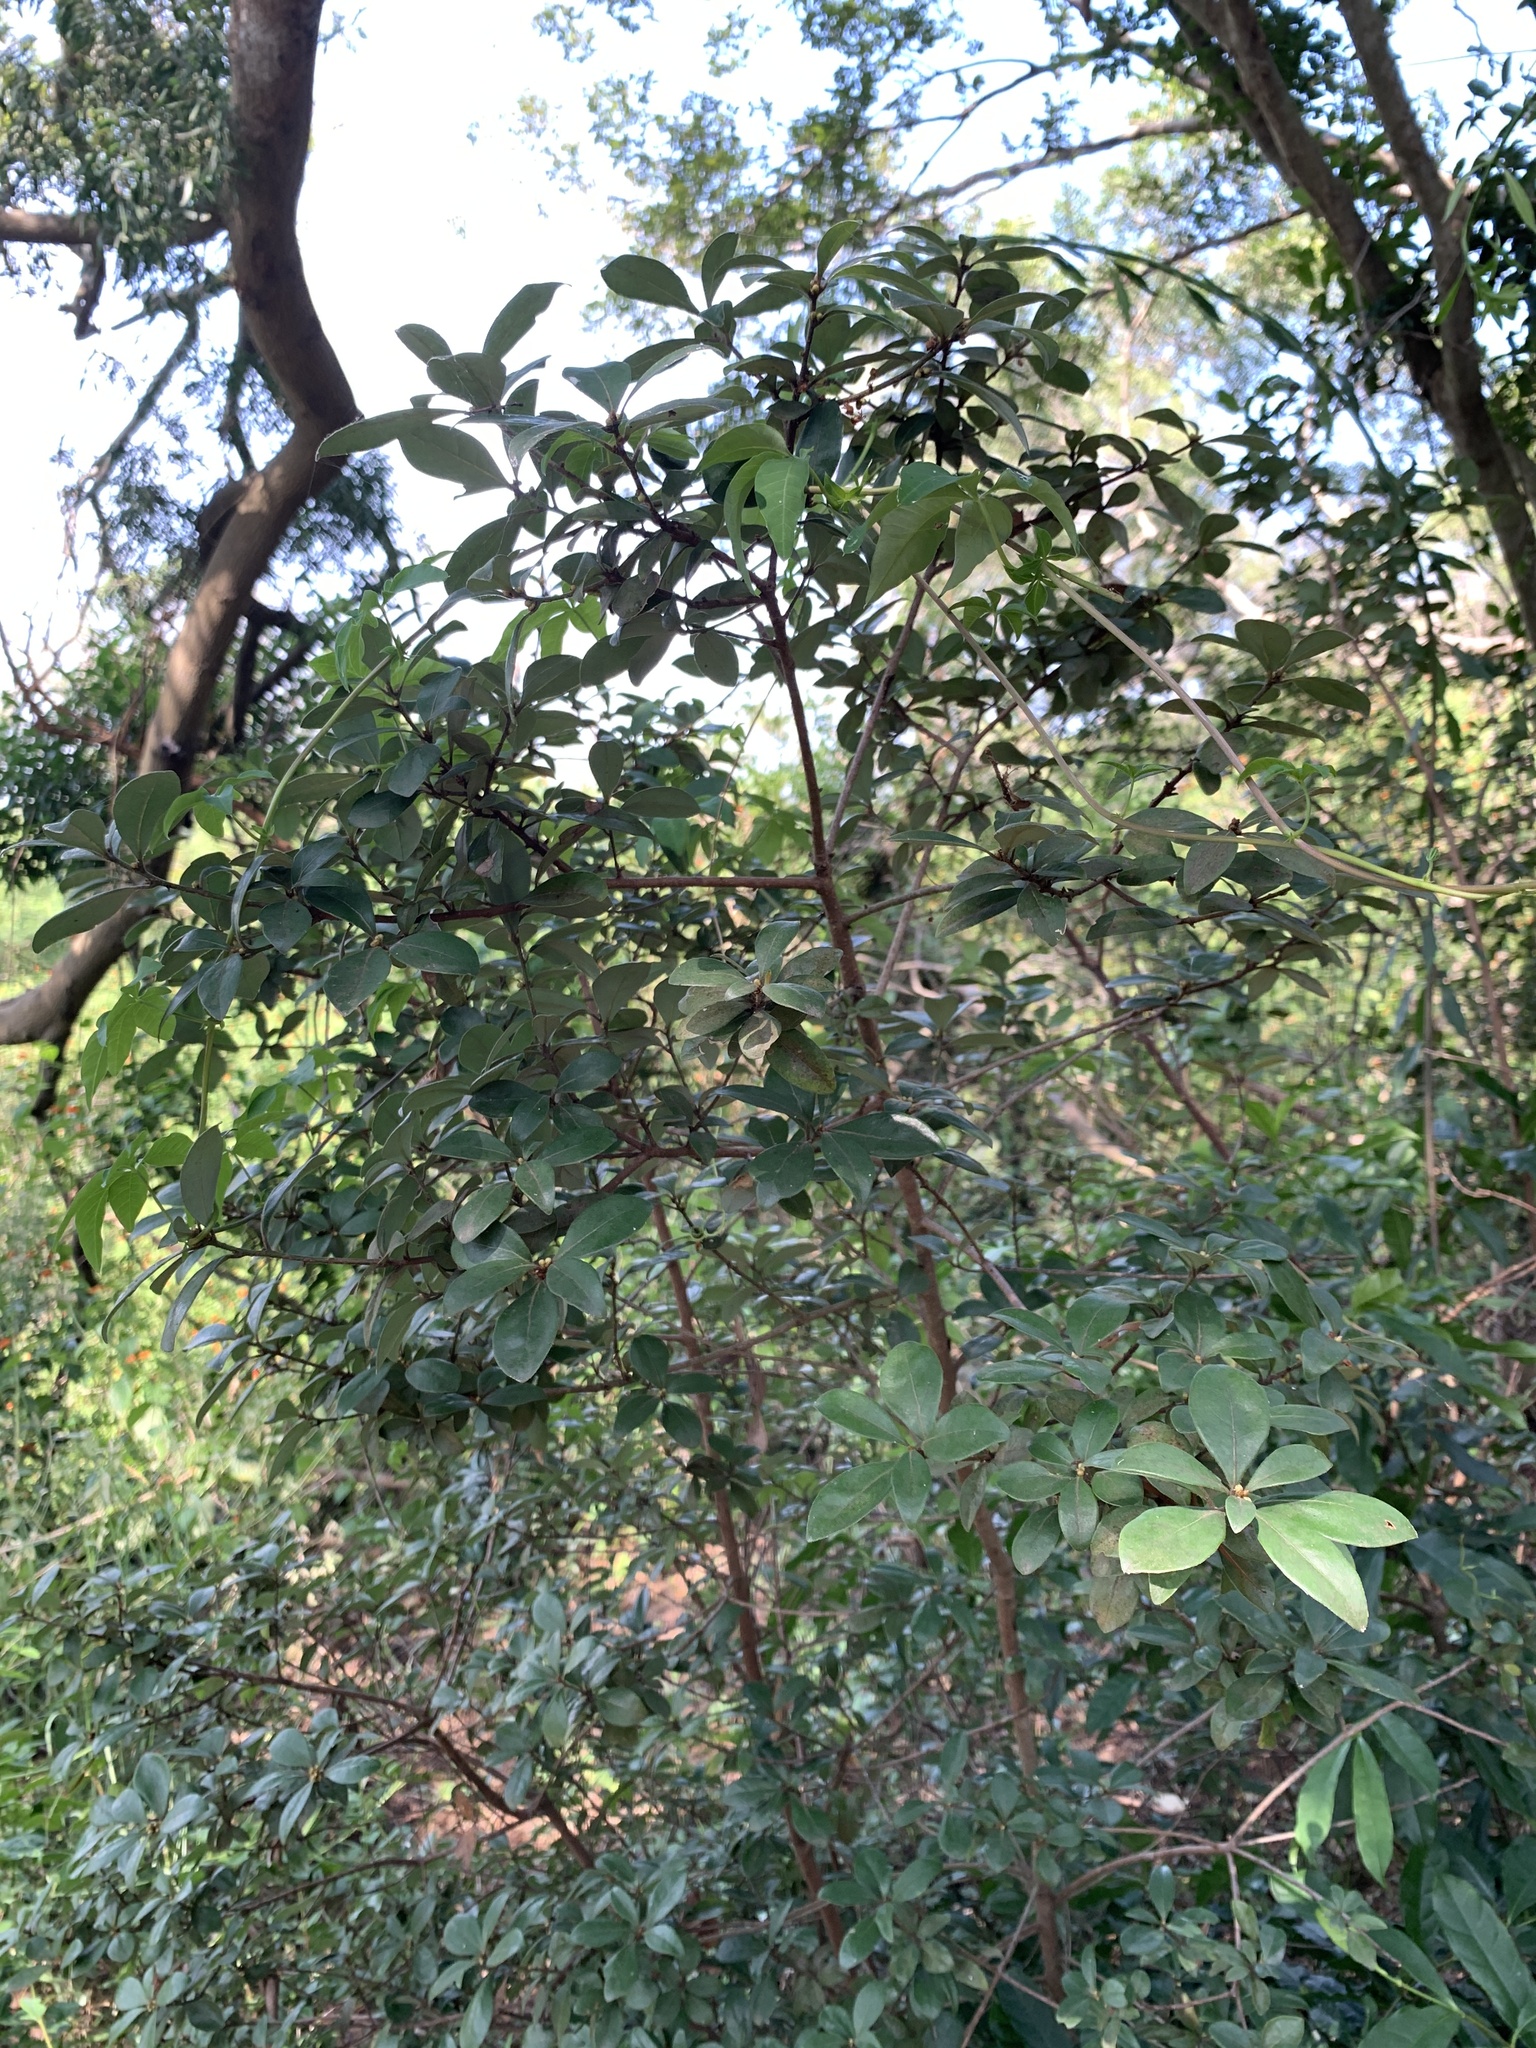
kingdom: Plantae
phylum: Tracheophyta
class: Magnoliopsida
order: Laurales
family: Lauraceae
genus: Litsea
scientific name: Litsea rotundifolia
